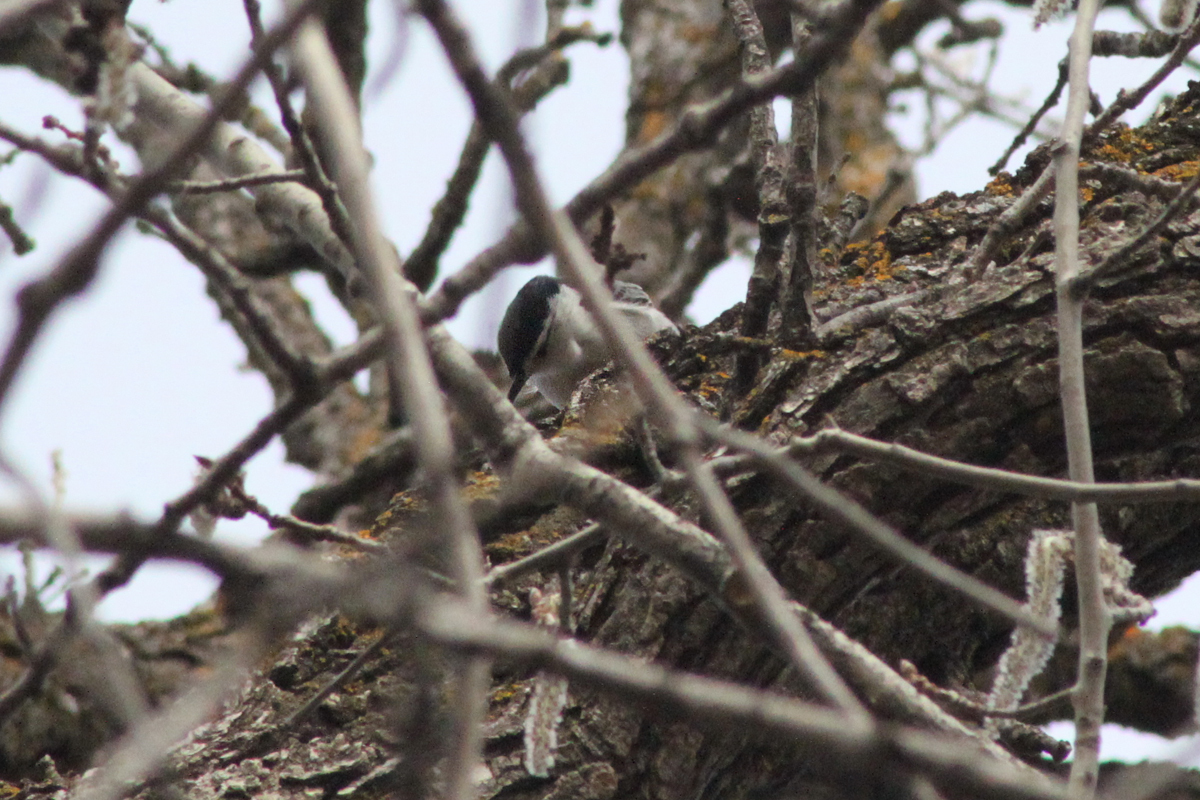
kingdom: Animalia
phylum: Chordata
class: Aves
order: Passeriformes
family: Sittidae
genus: Sitta
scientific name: Sitta carolinensis
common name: White-breasted nuthatch
